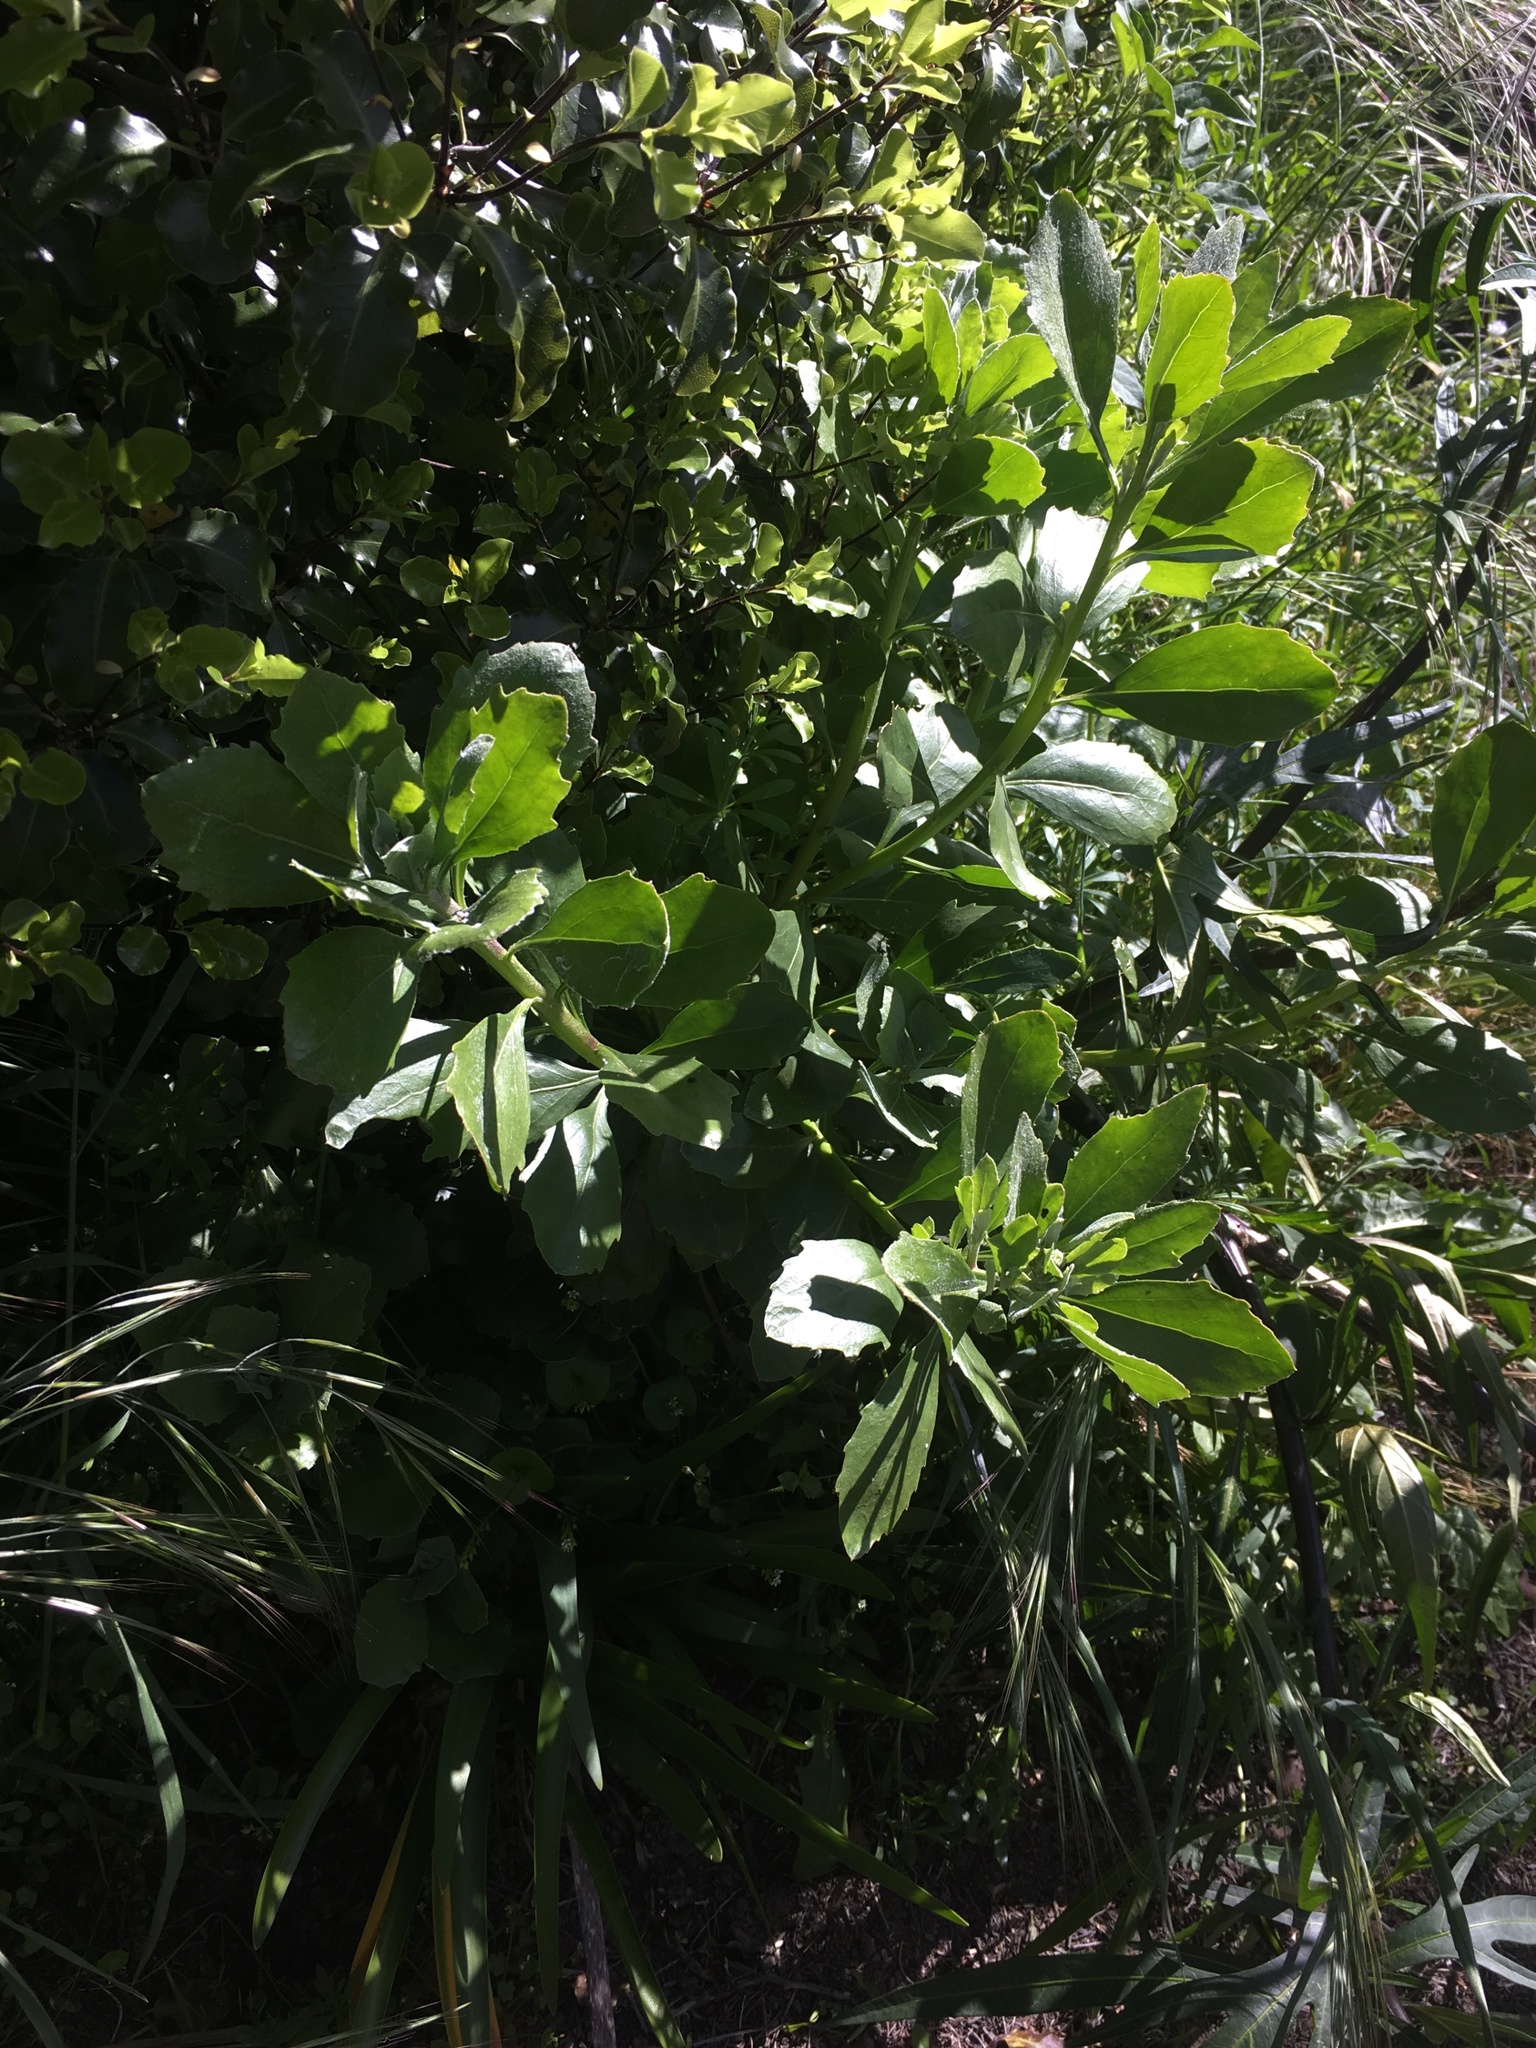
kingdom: Plantae
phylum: Tracheophyta
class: Magnoliopsida
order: Asterales
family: Asteraceae
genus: Osteospermum
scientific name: Osteospermum moniliferum
